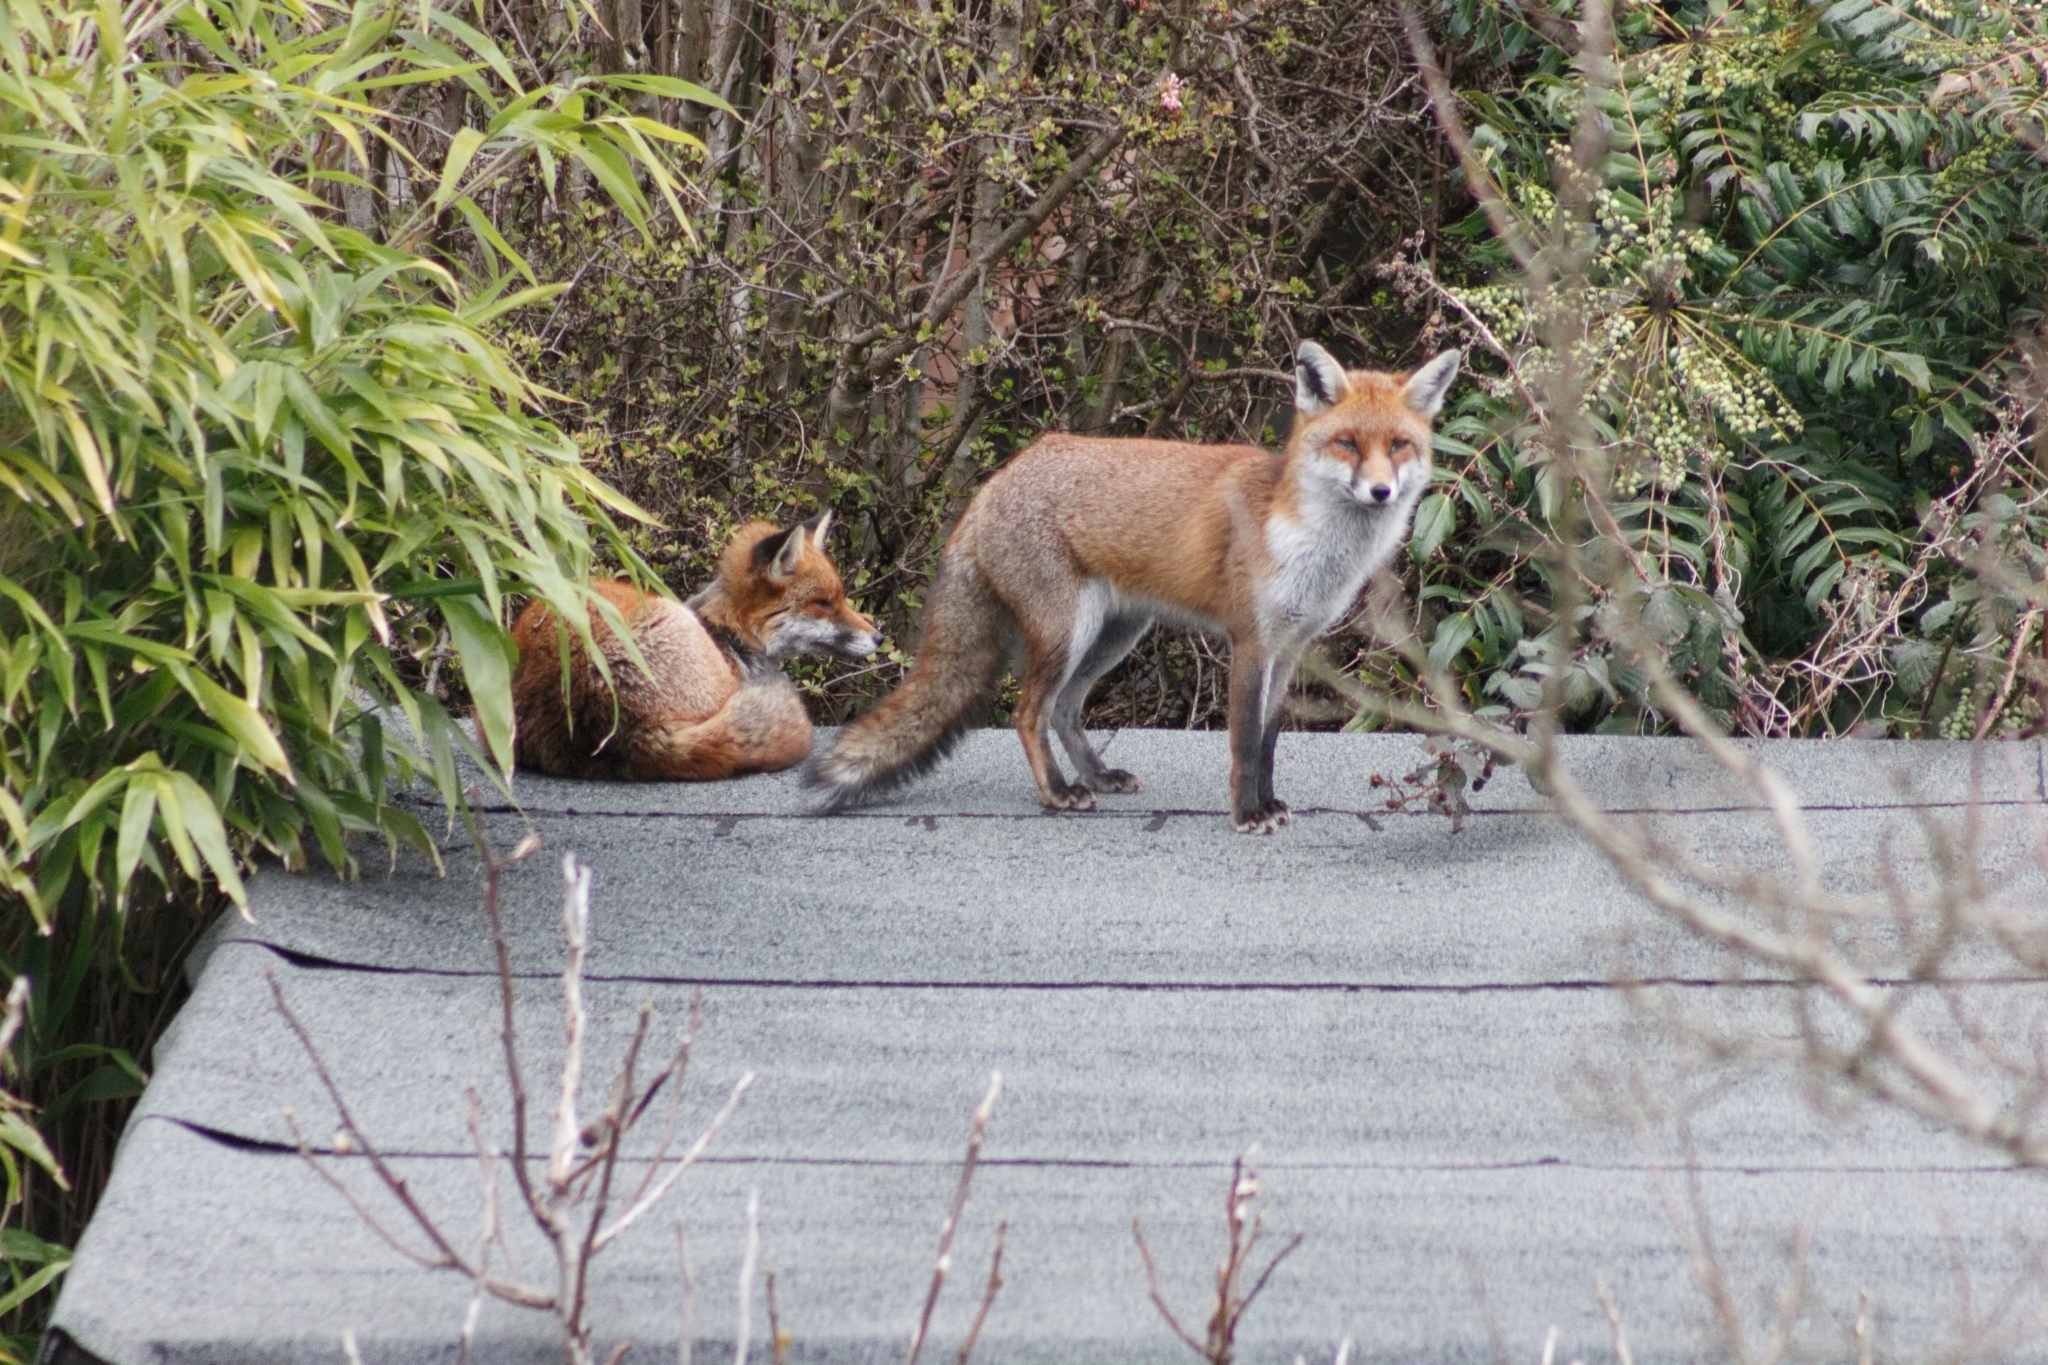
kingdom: Animalia
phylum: Chordata
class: Mammalia
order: Carnivora
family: Canidae
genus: Vulpes
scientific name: Vulpes vulpes
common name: Red fox
